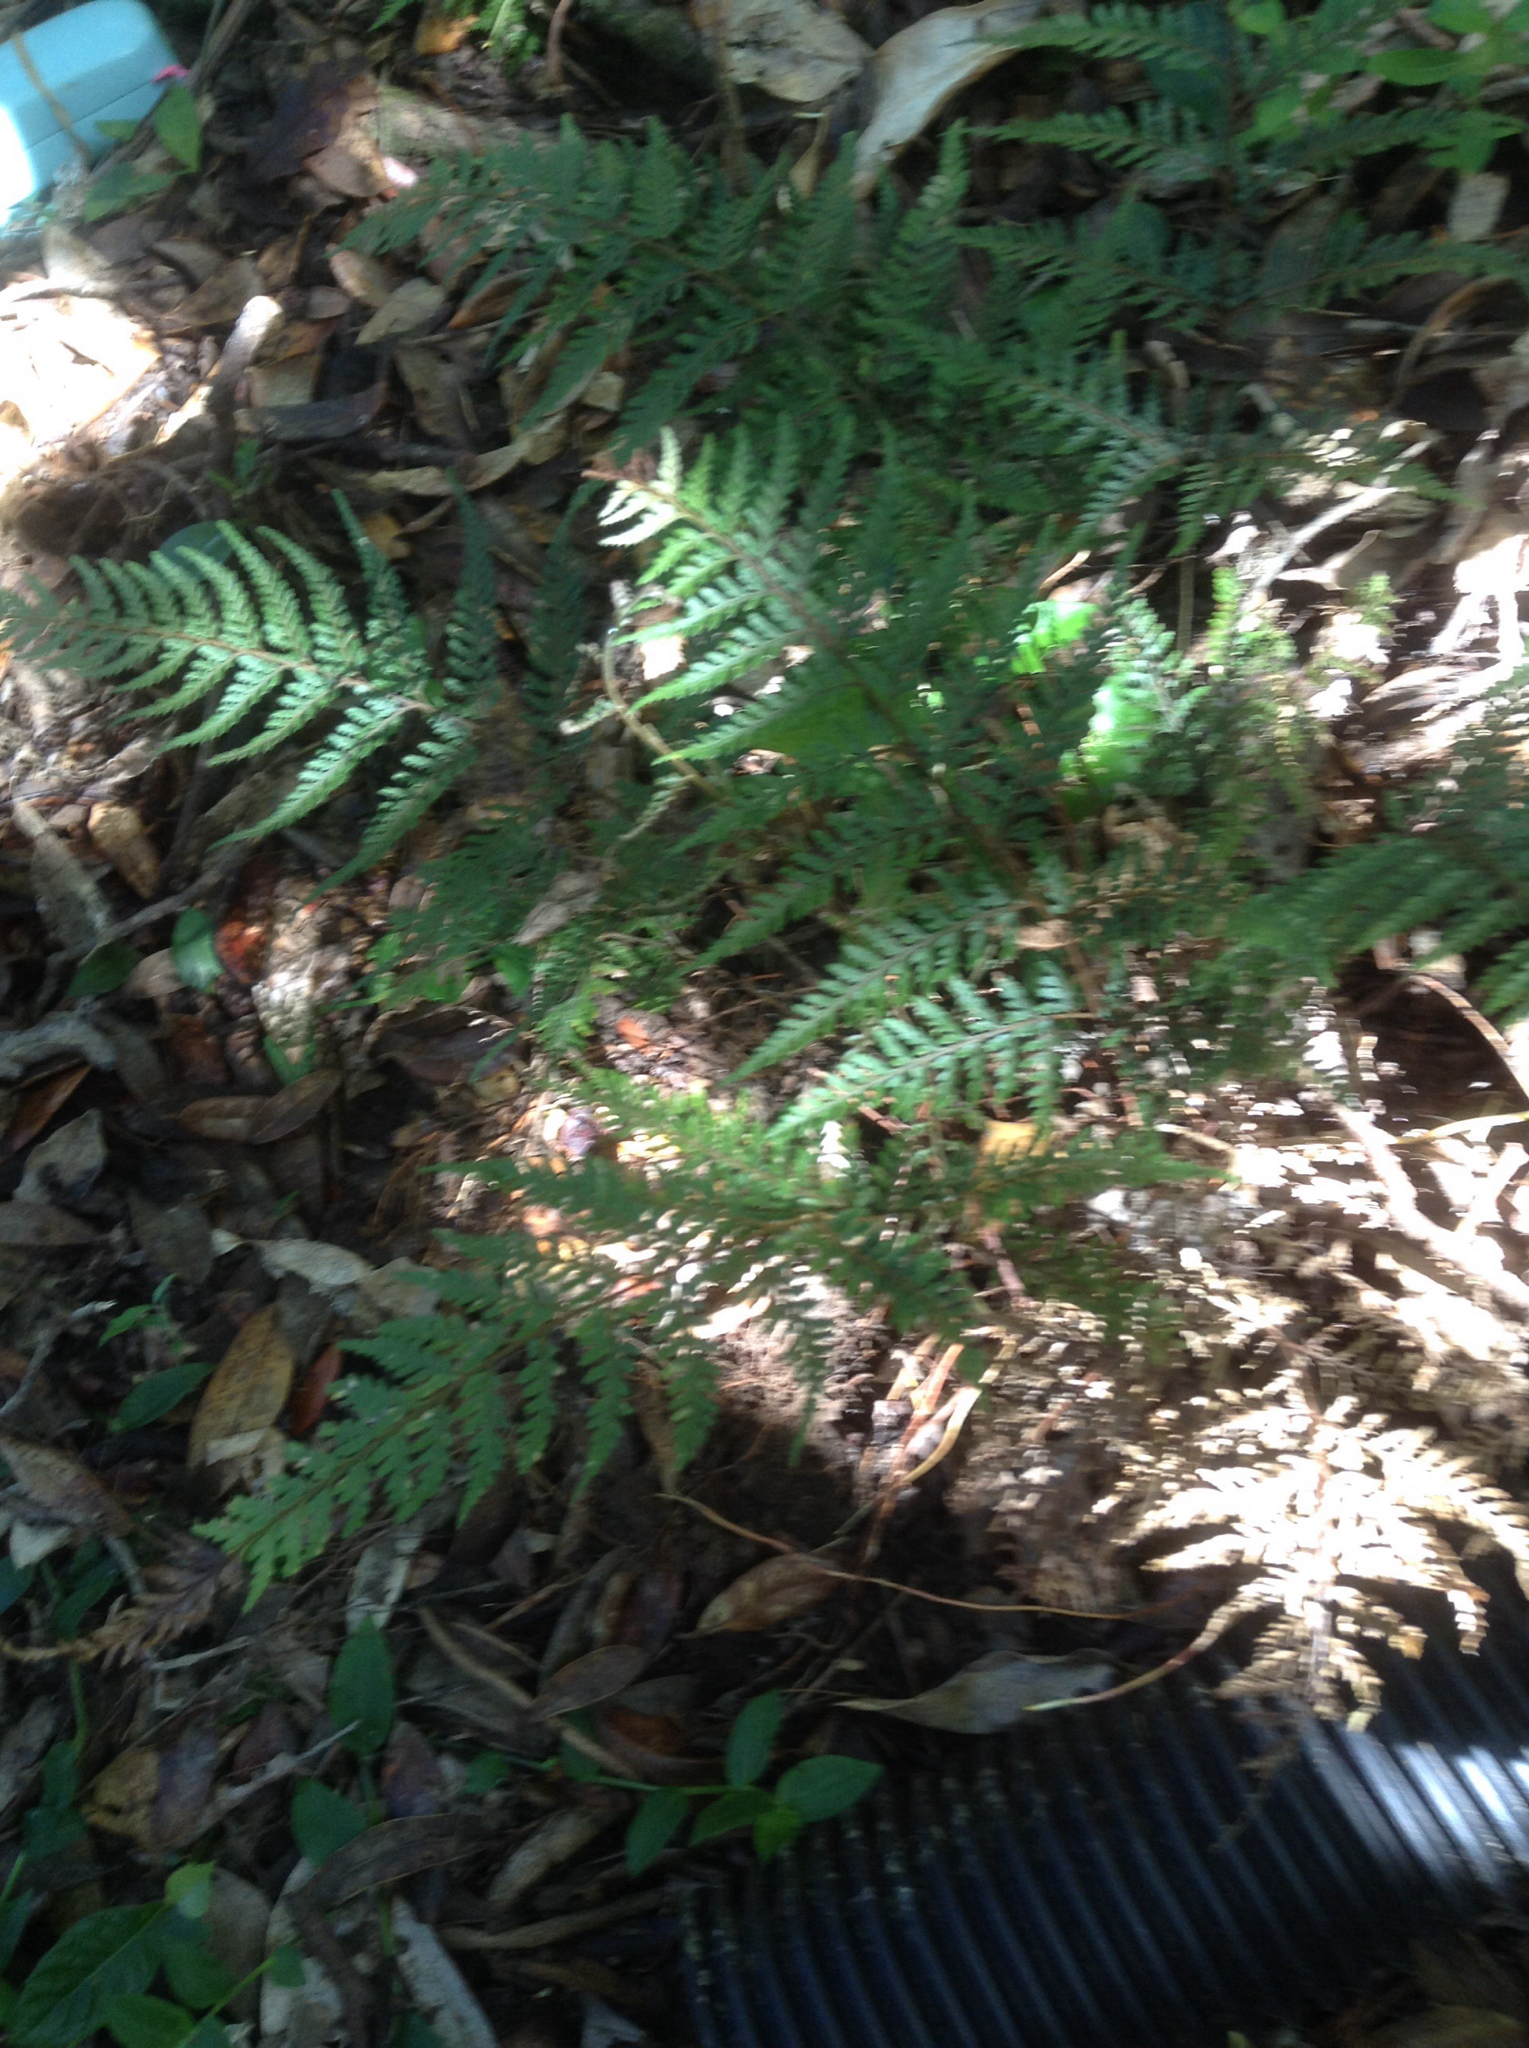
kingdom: Plantae
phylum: Tracheophyta
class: Polypodiopsida
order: Polypodiales
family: Dryopteridaceae
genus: Parapolystichum
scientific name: Parapolystichum glabellum
